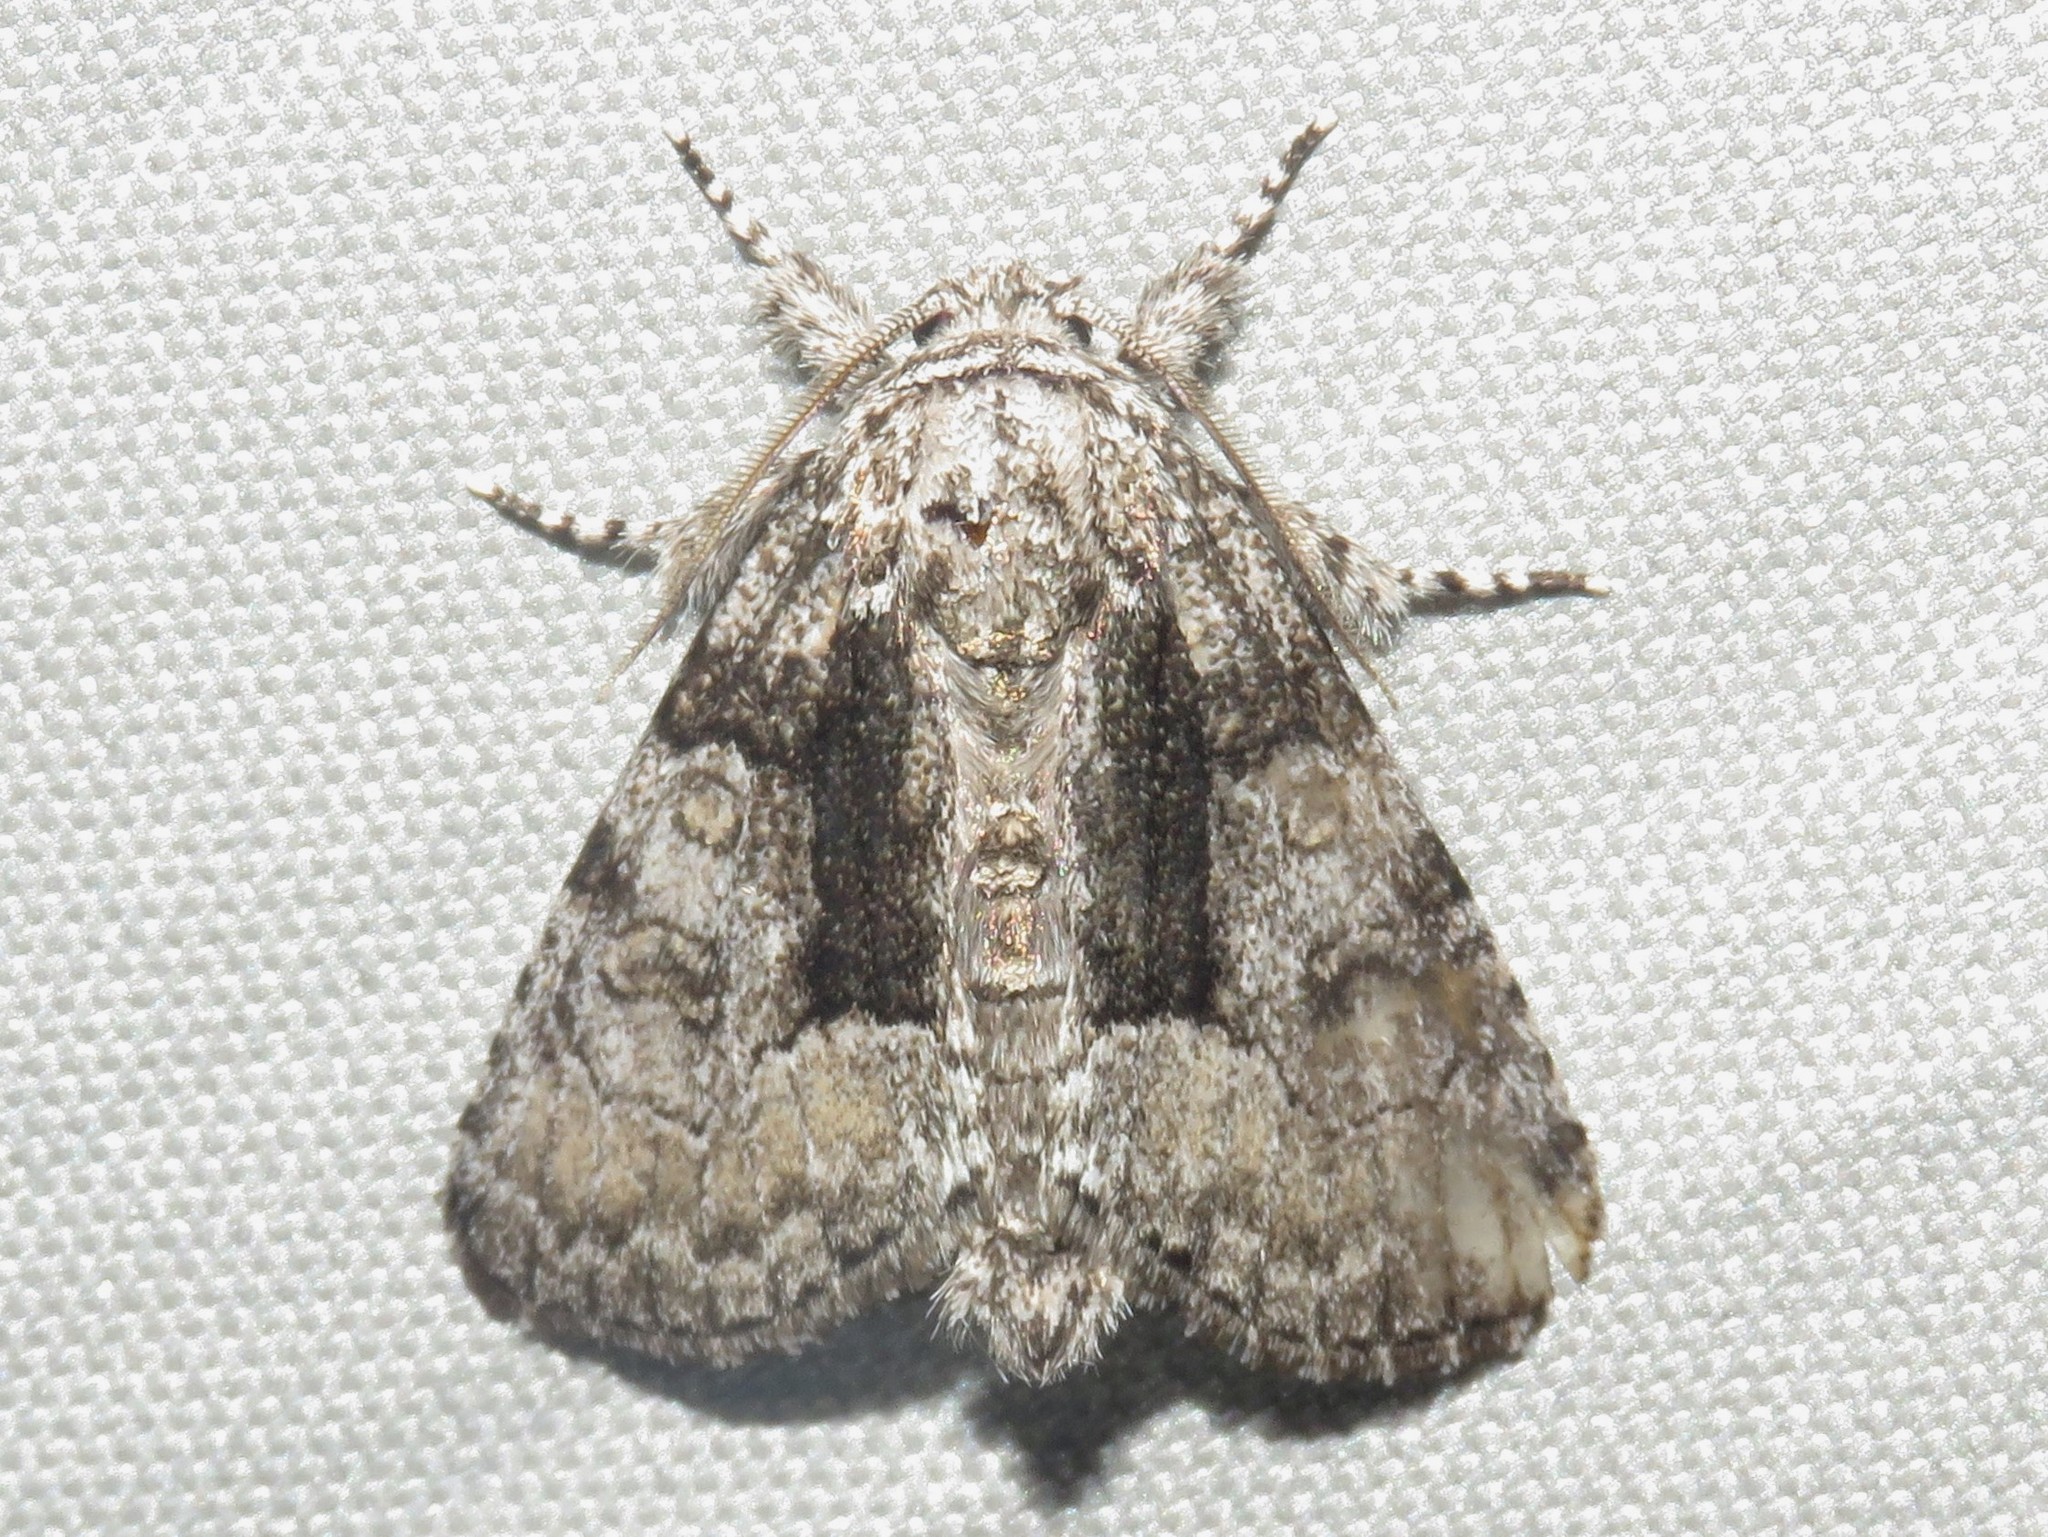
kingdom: Animalia
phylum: Arthropoda
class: Insecta
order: Lepidoptera
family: Noctuidae
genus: Raphia
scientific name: Raphia frater
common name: Brother
